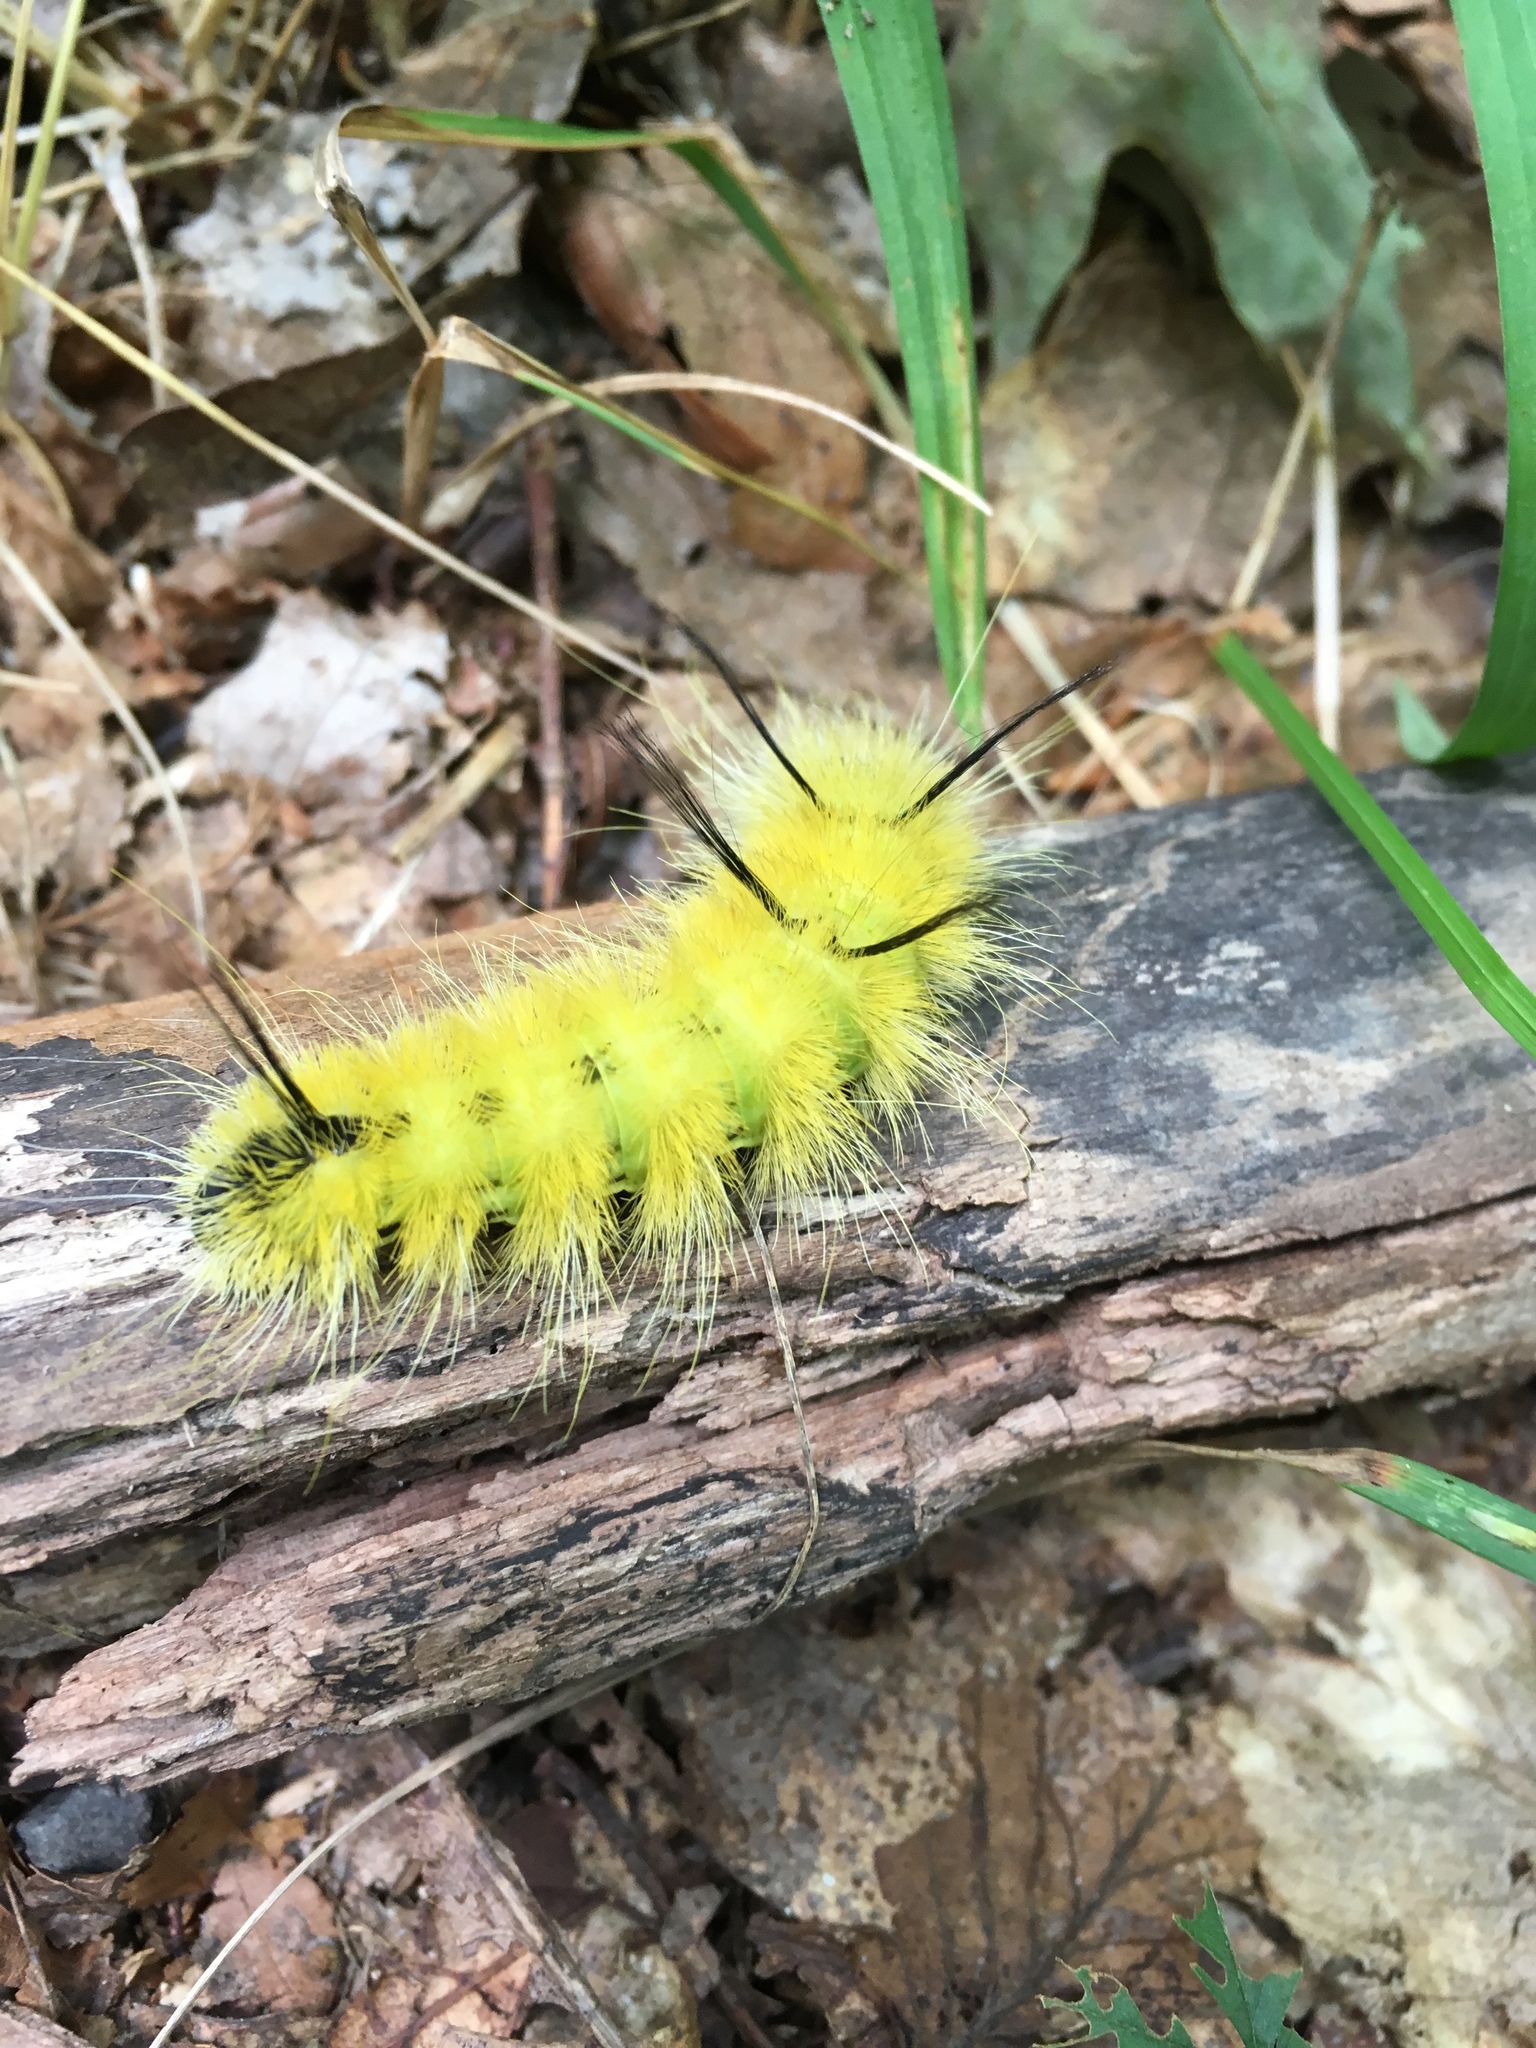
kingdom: Animalia
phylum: Arthropoda
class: Insecta
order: Lepidoptera
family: Noctuidae
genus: Acronicta
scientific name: Acronicta americana
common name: American dagger
